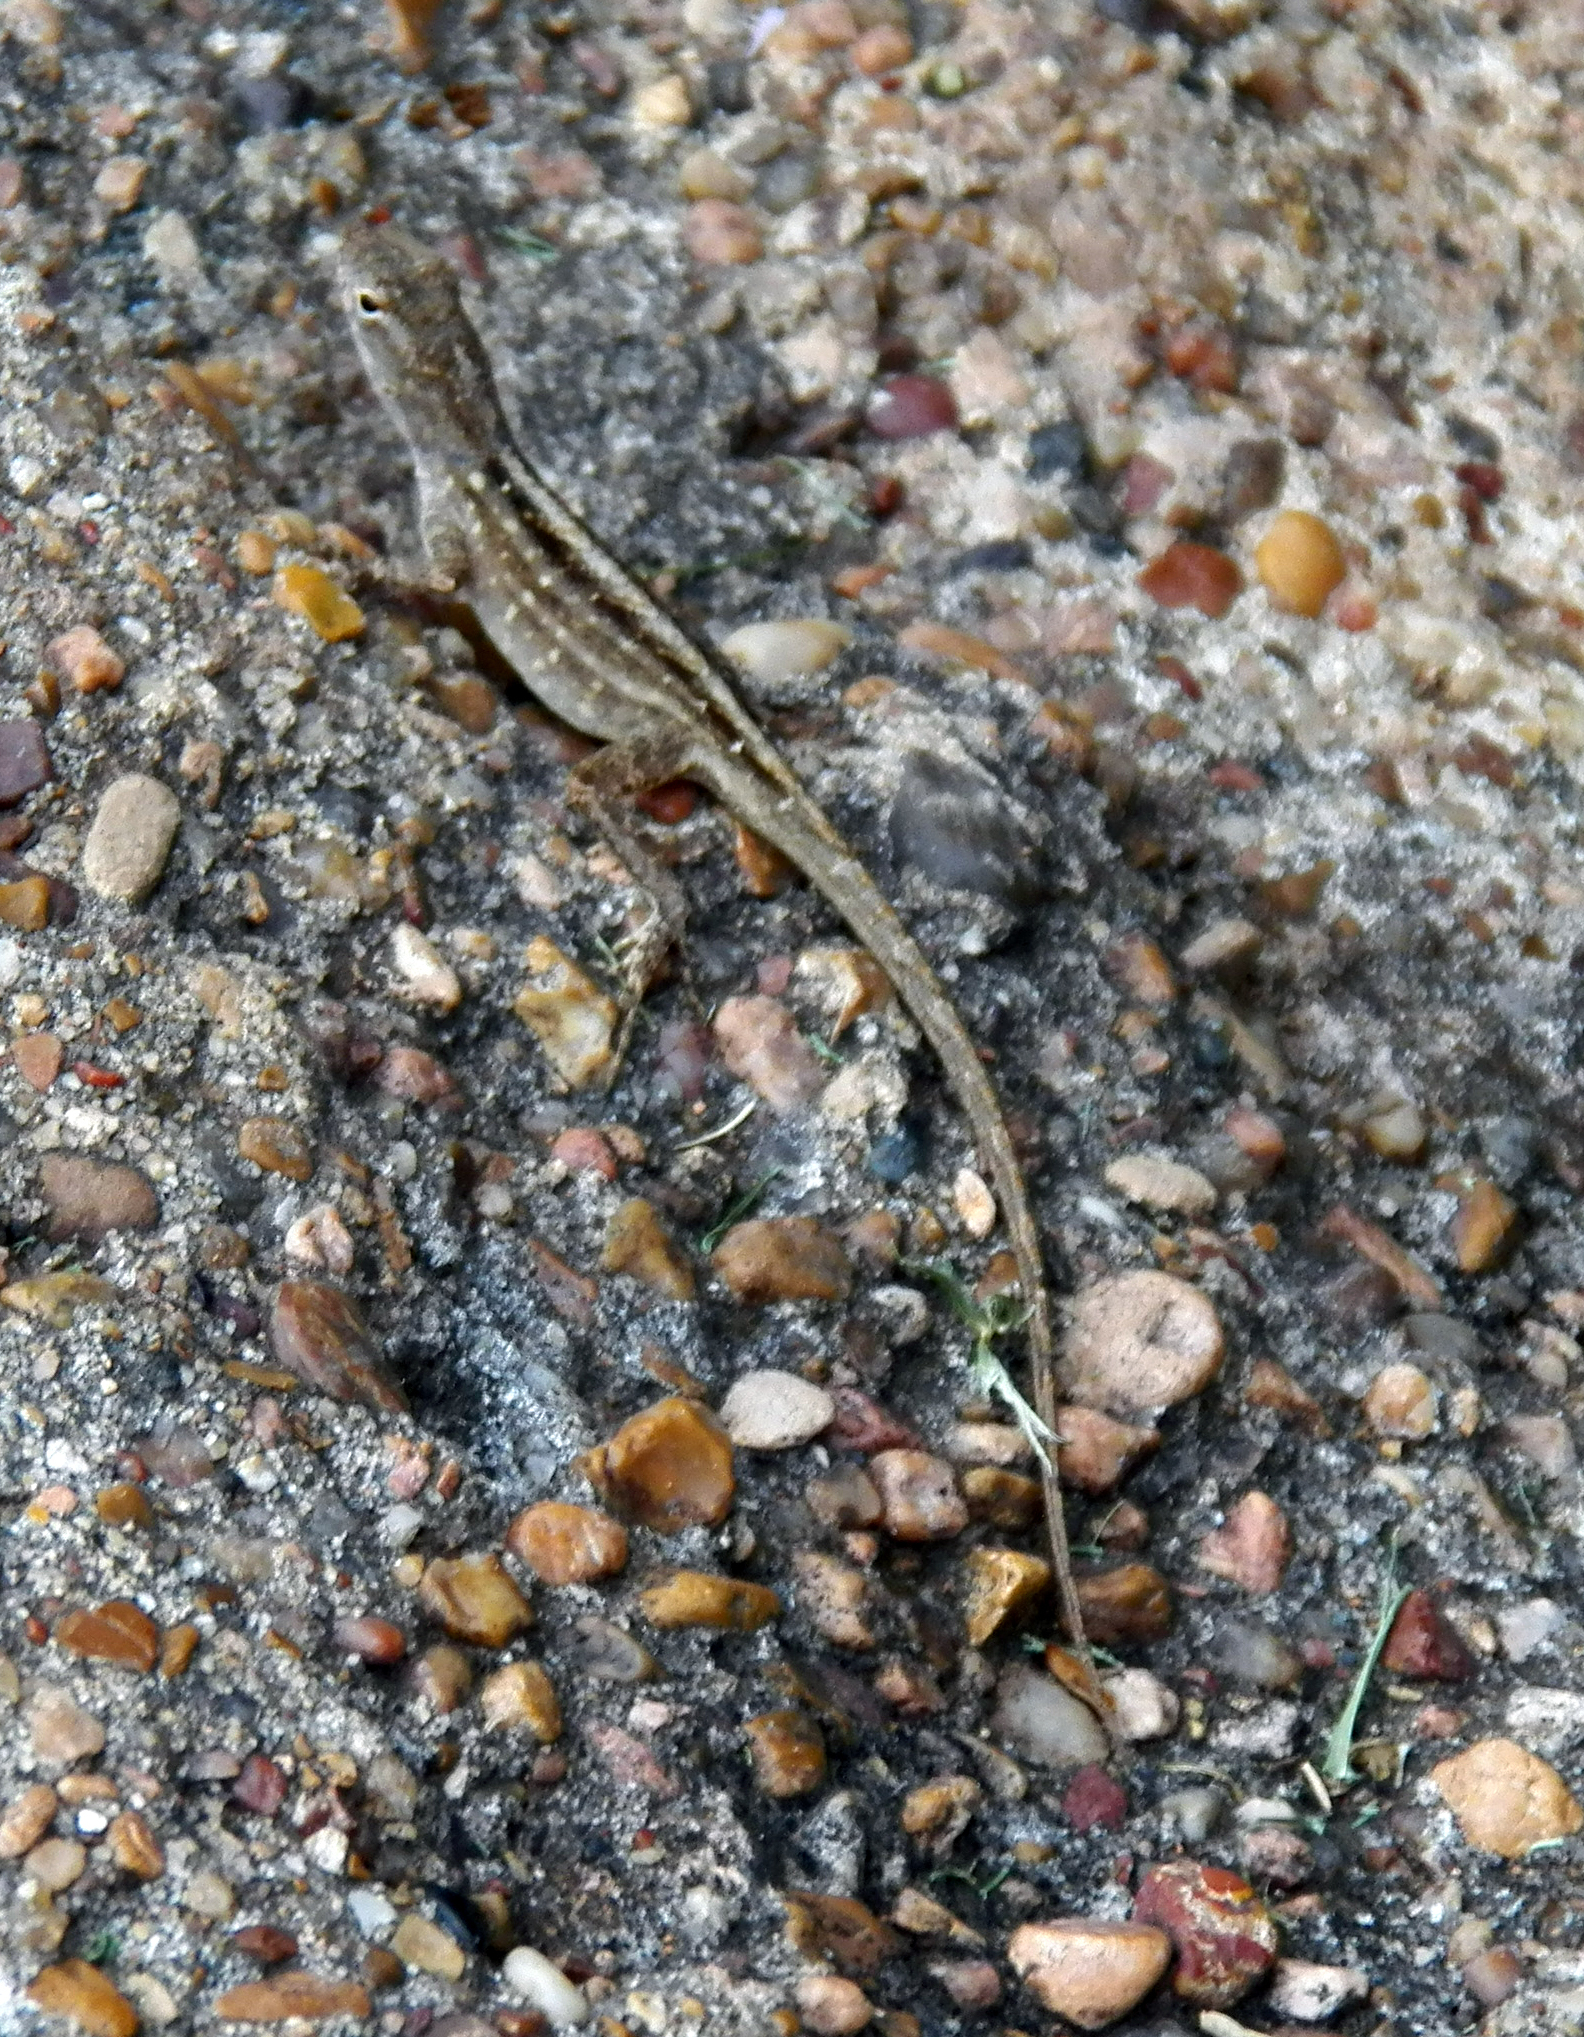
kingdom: Animalia
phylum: Chordata
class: Squamata
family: Dactyloidae
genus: Anolis
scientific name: Anolis sagrei
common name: Brown anole
